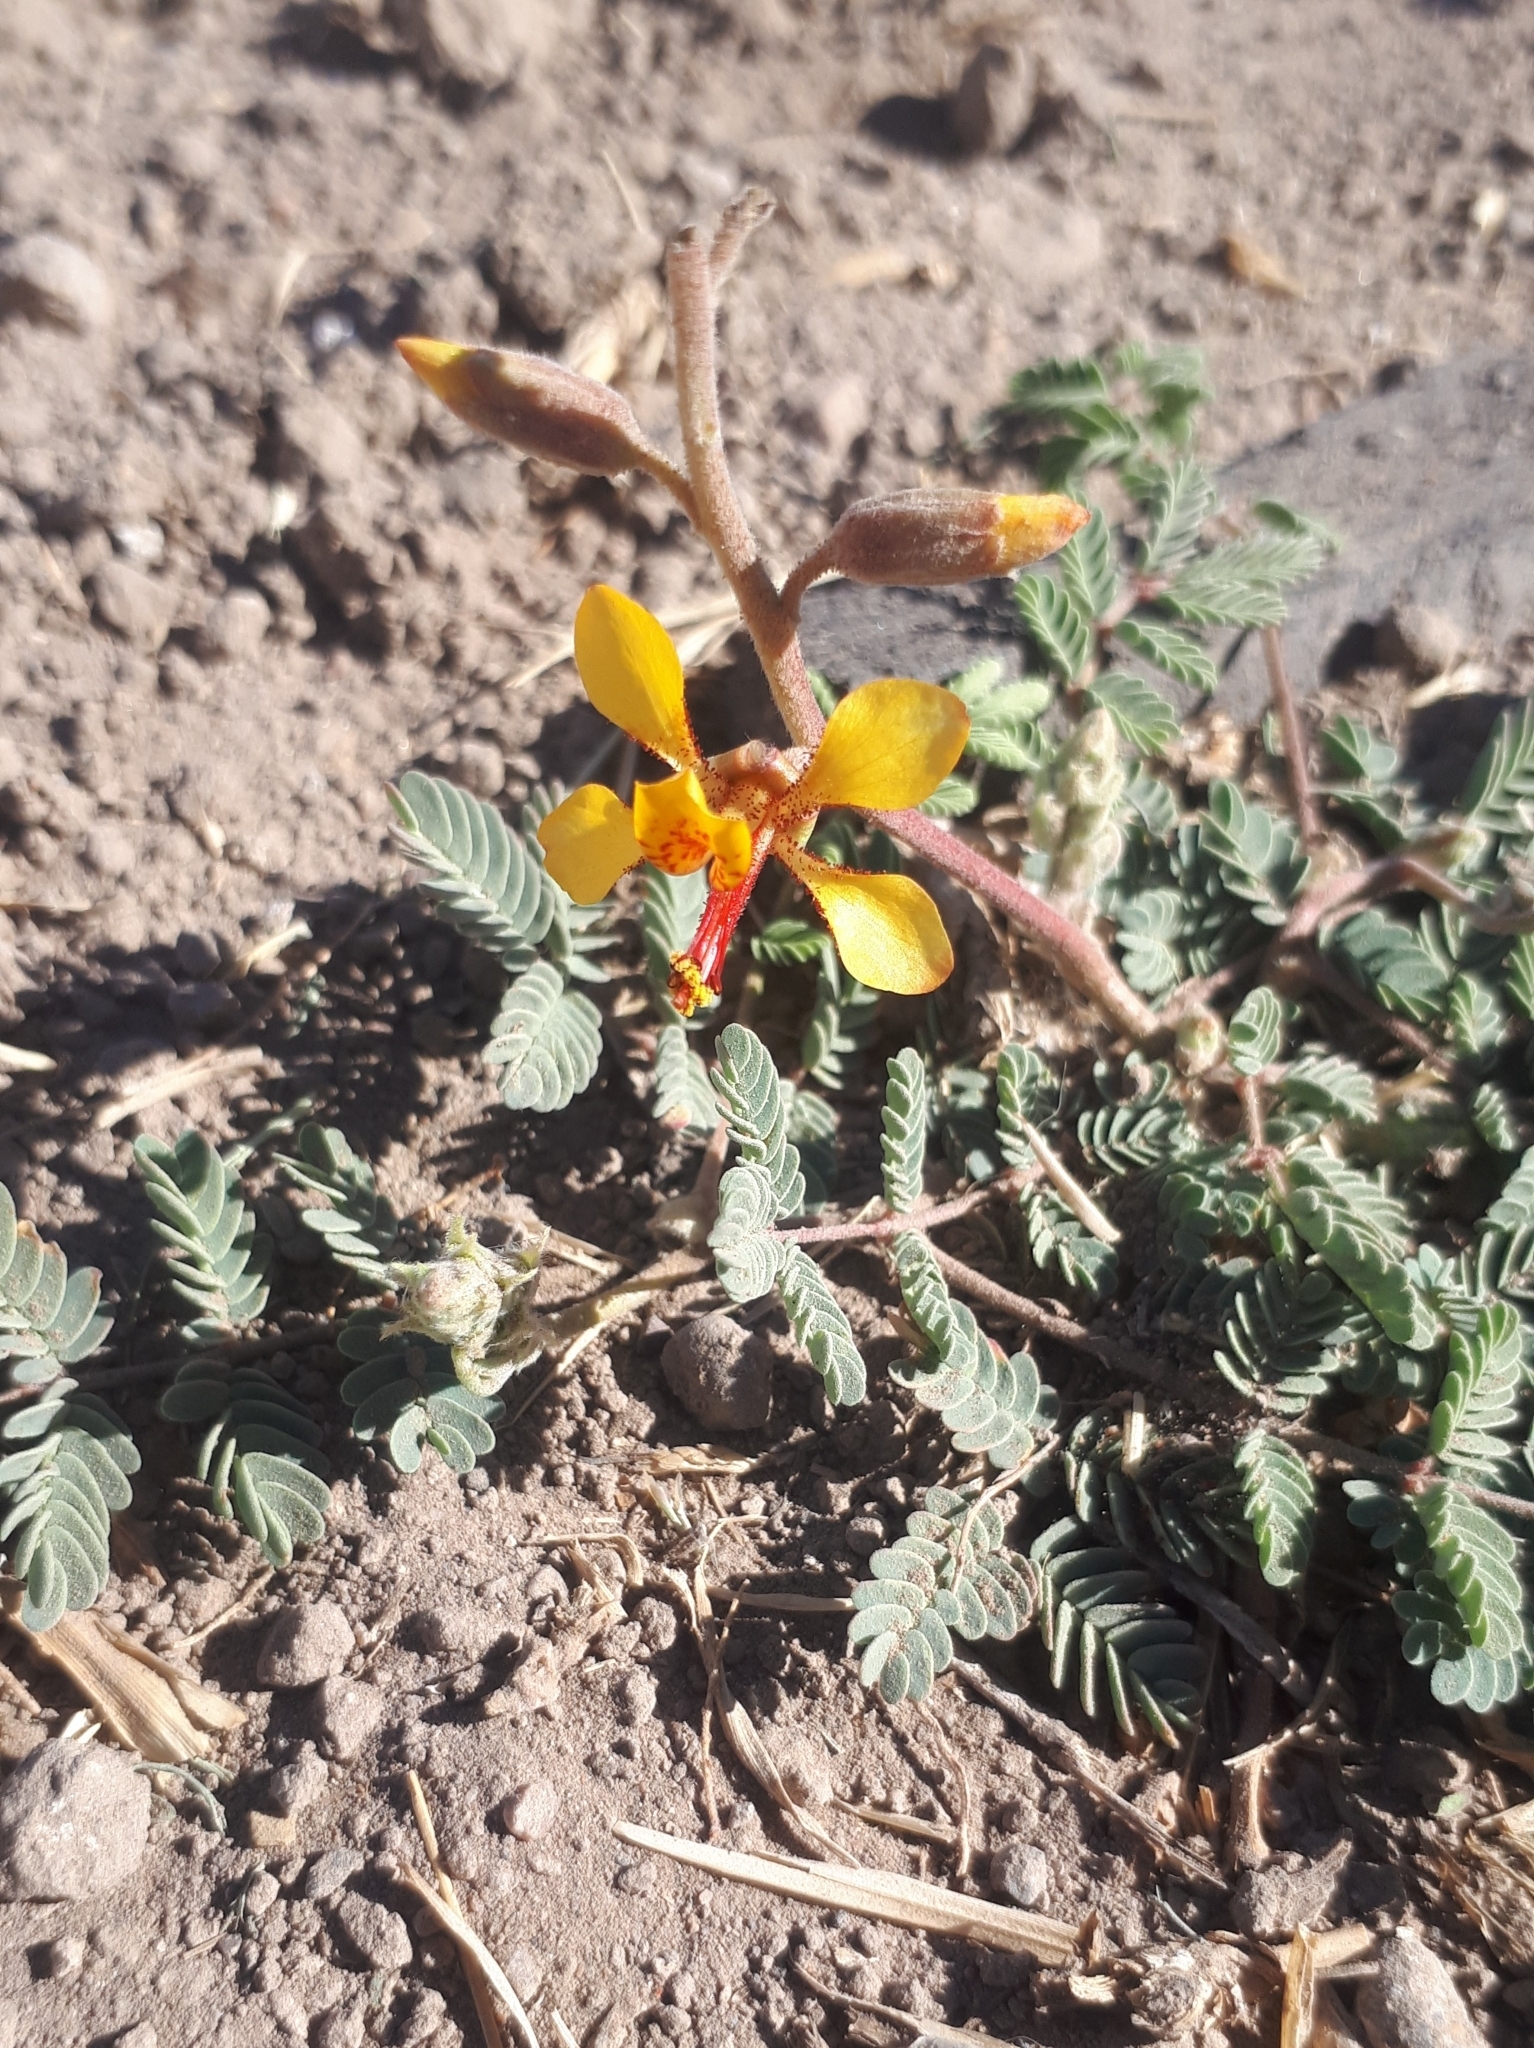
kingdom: Plantae
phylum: Tracheophyta
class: Magnoliopsida
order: Fabales
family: Fabaceae
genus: Hoffmannseggia
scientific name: Hoffmannseggia glauca
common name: Pignut
